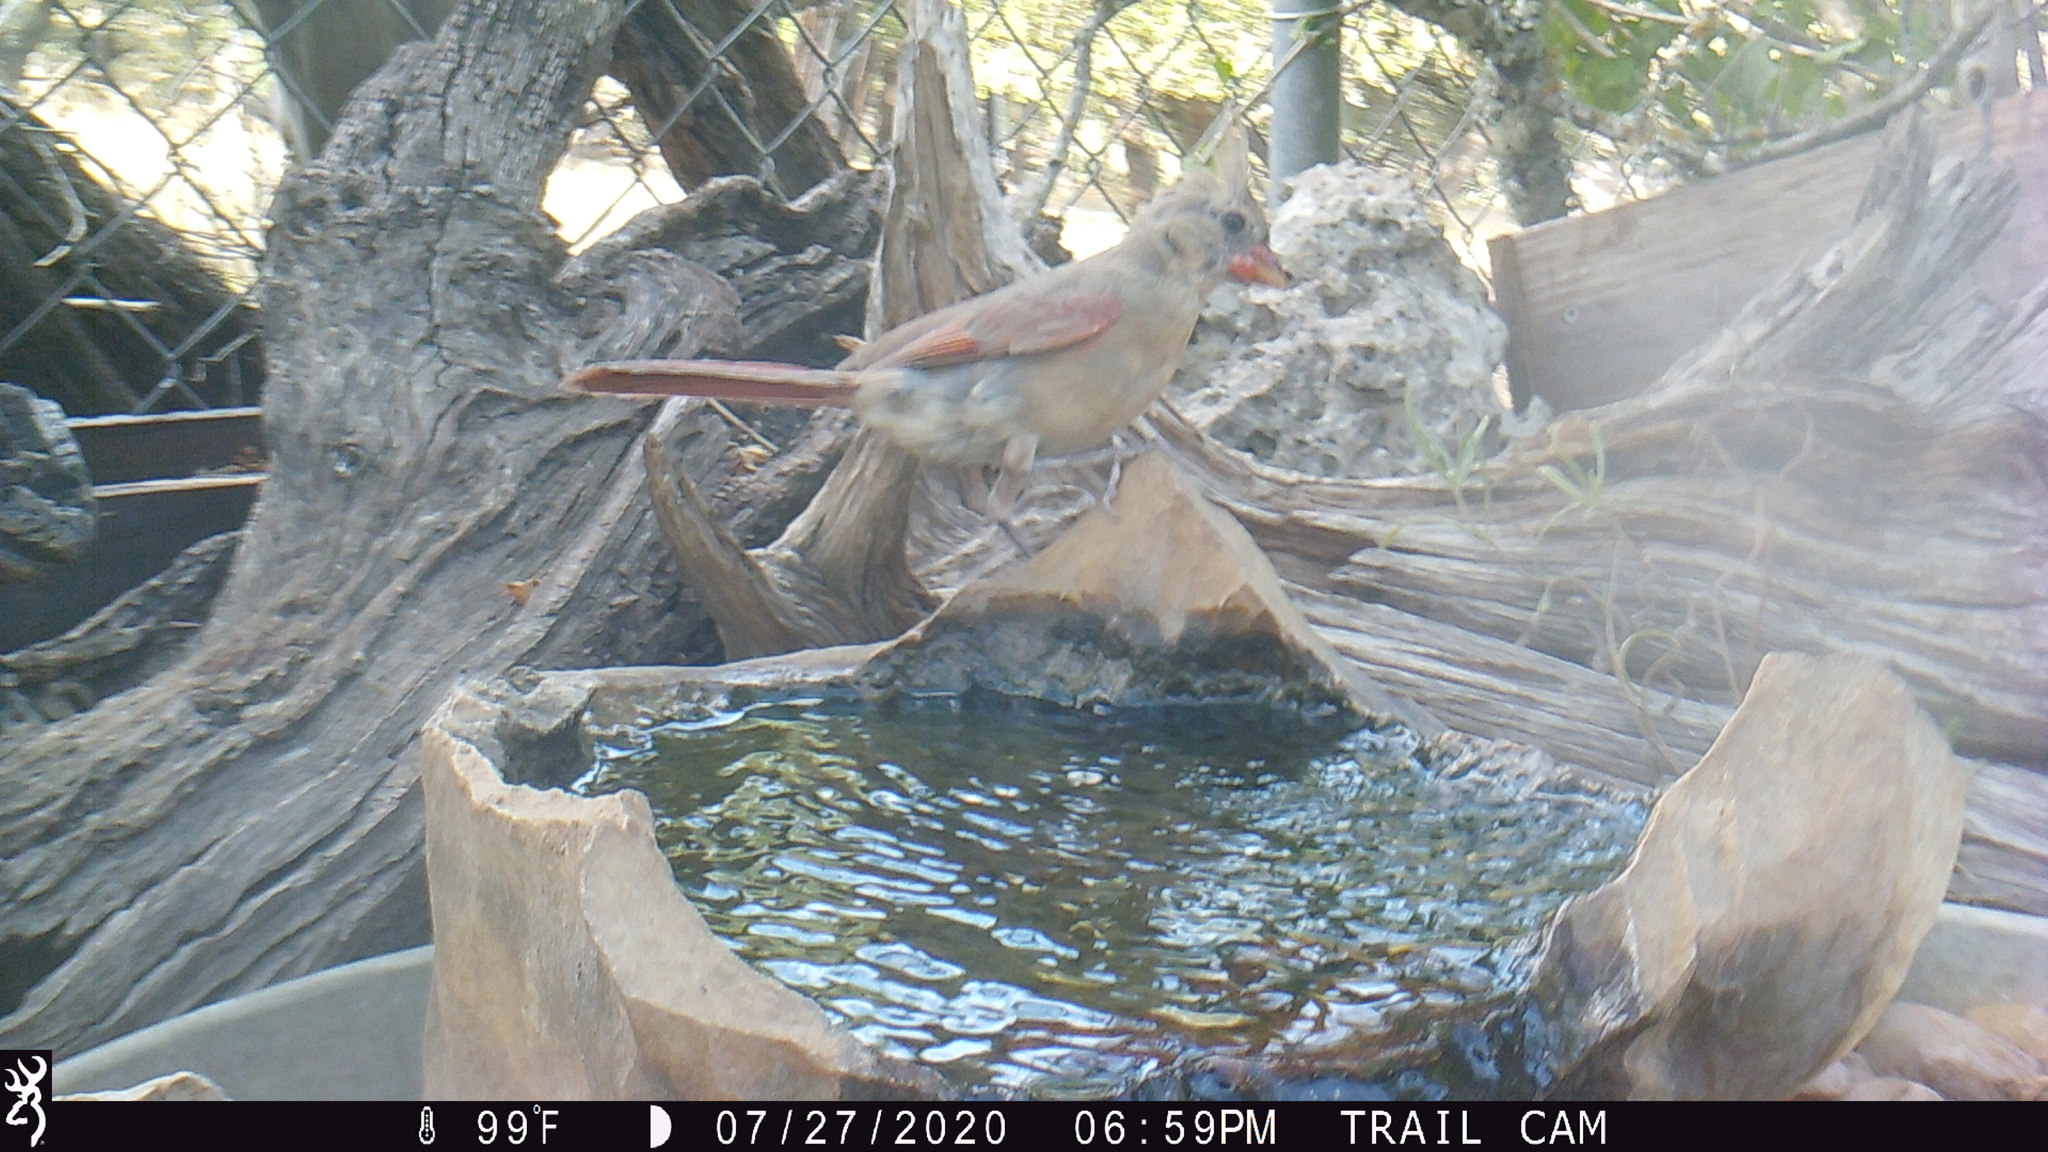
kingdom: Animalia
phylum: Chordata
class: Aves
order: Passeriformes
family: Cardinalidae
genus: Cardinalis
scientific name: Cardinalis cardinalis
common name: Northern cardinal
